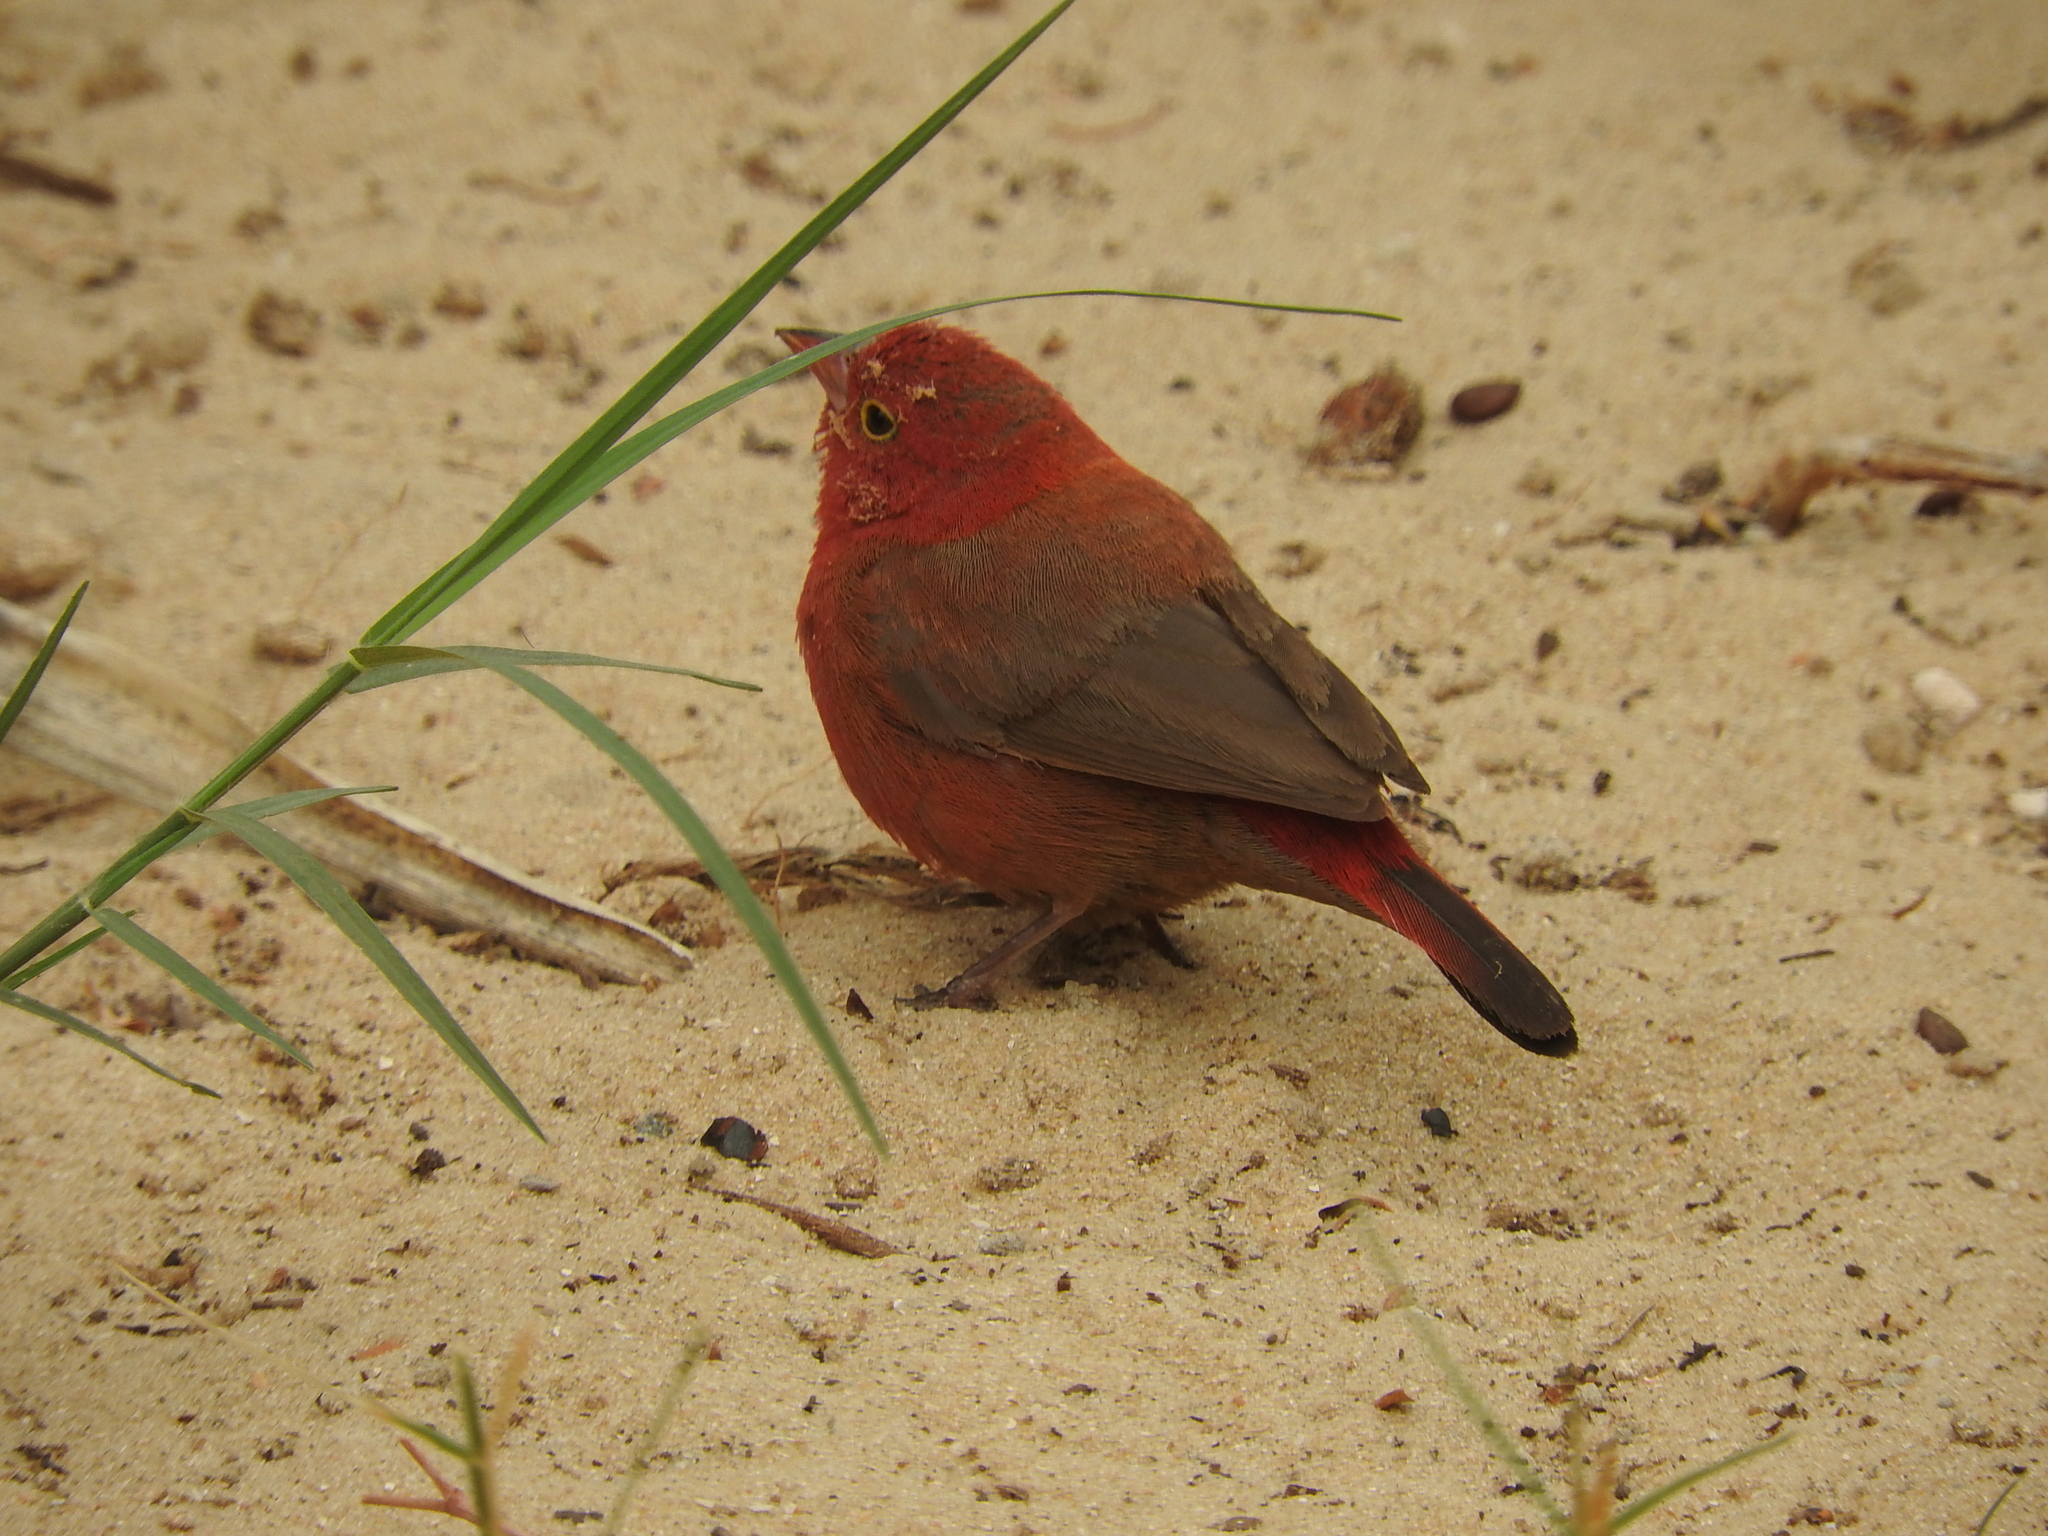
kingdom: Animalia
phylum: Chordata
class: Aves
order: Passeriformes
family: Estrildidae
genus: Lagonosticta
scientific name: Lagonosticta senegala
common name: Red-billed firefinch
